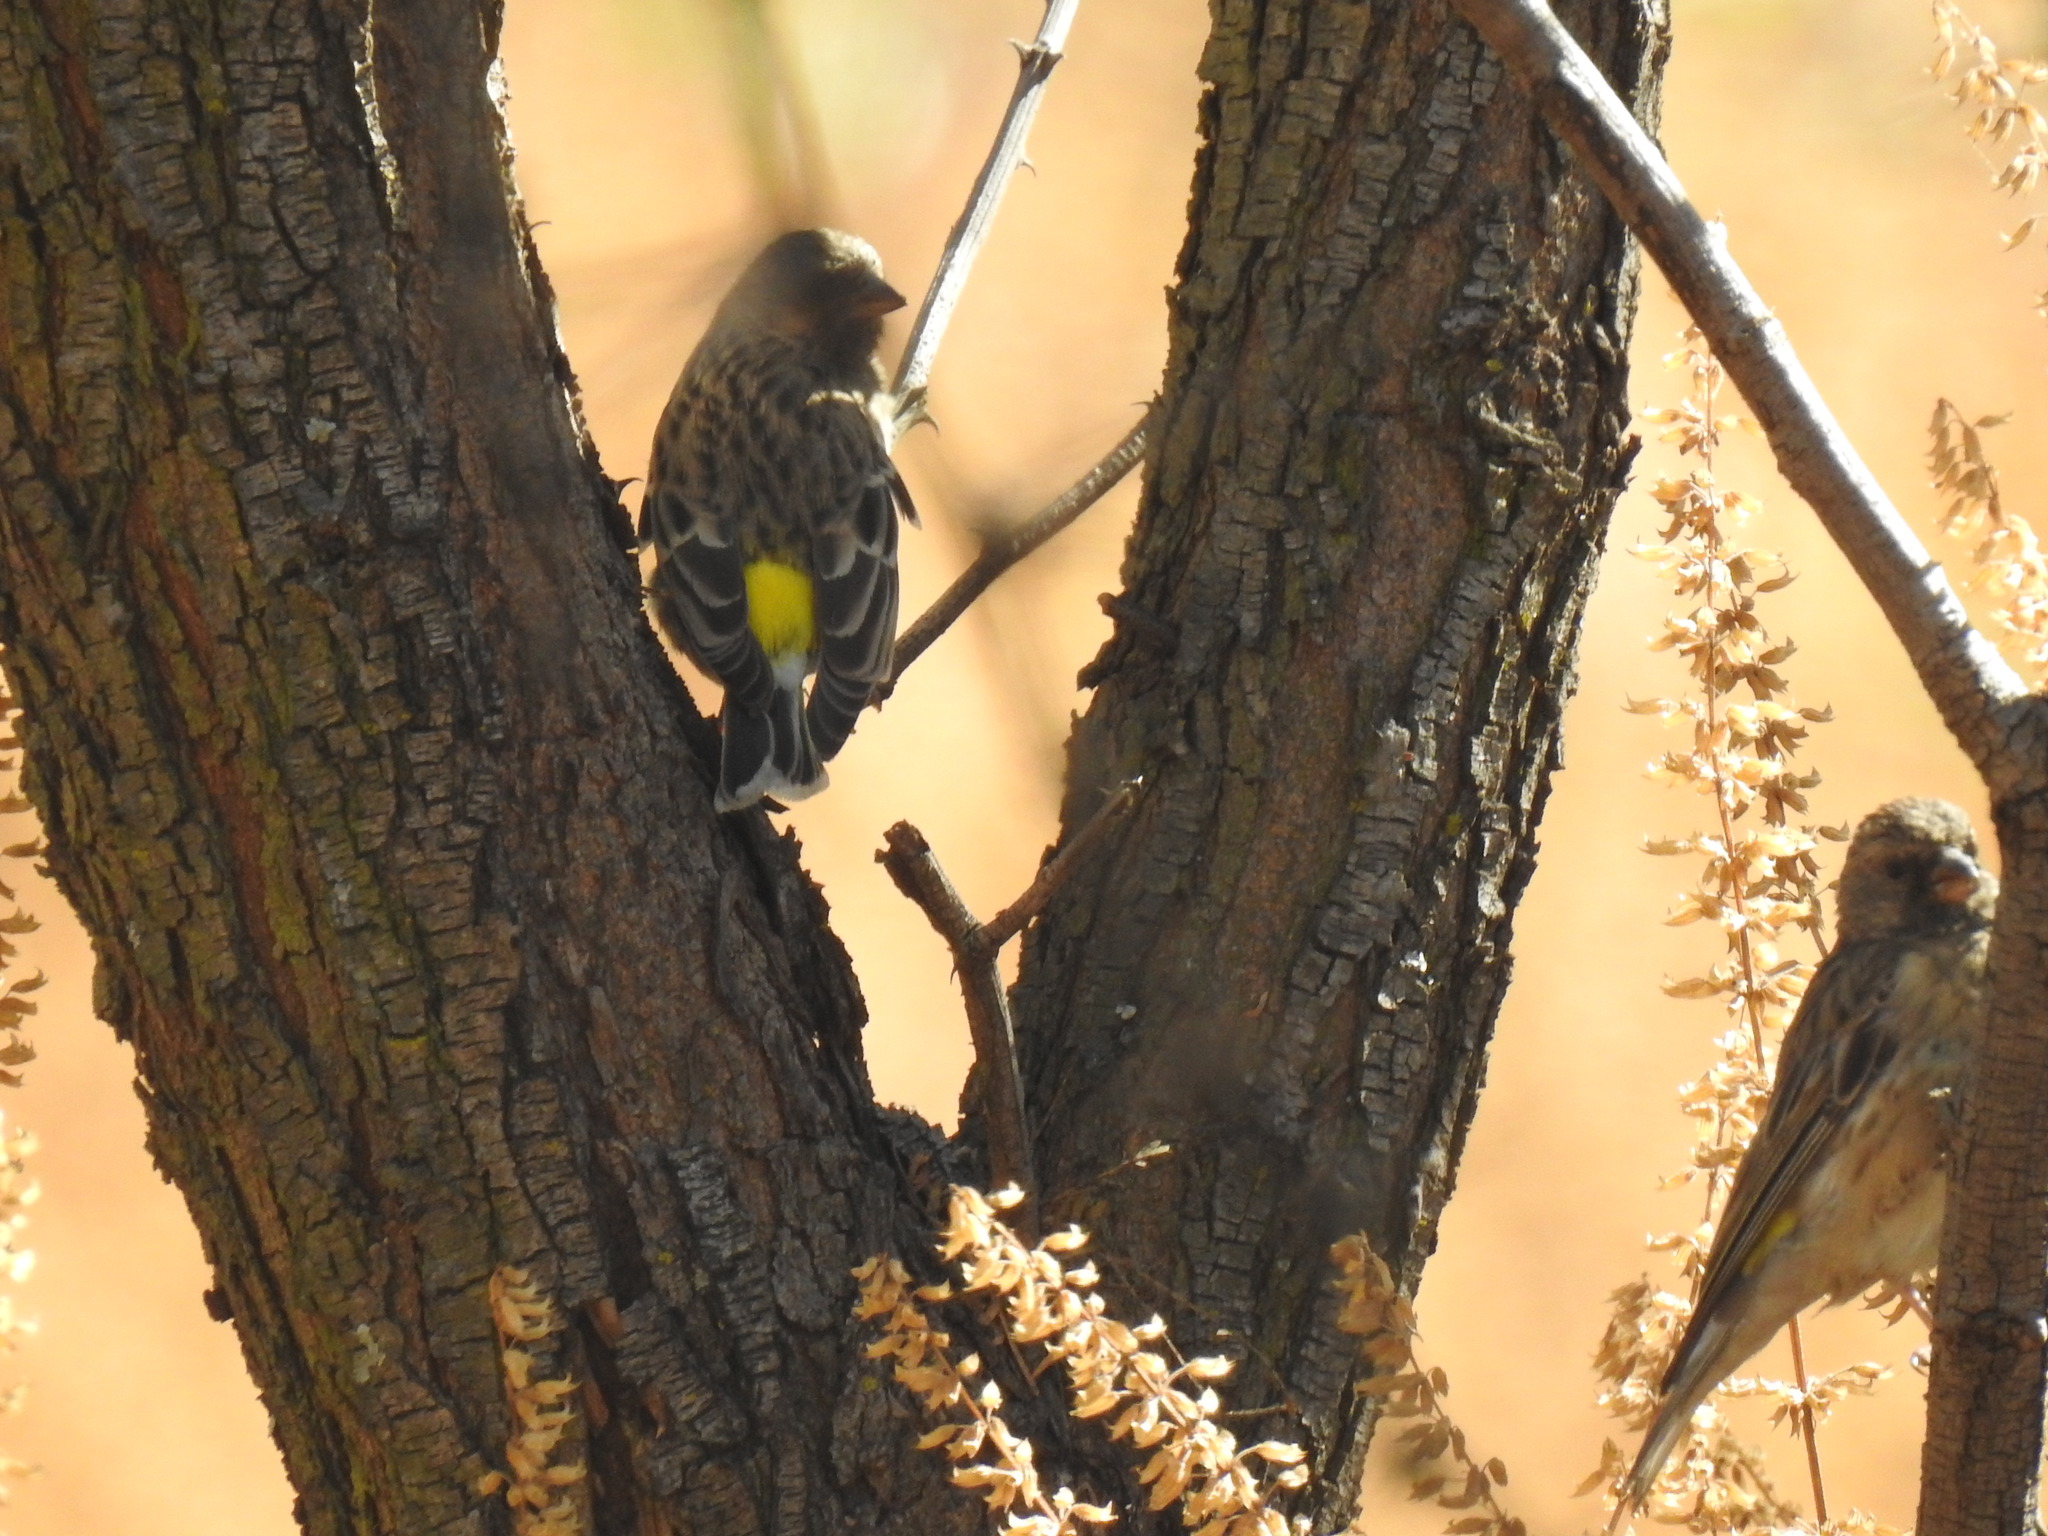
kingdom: Animalia
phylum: Chordata
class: Aves
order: Passeriformes
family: Fringillidae
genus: Crithagra
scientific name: Crithagra atrogularis
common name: Black-throated canary
